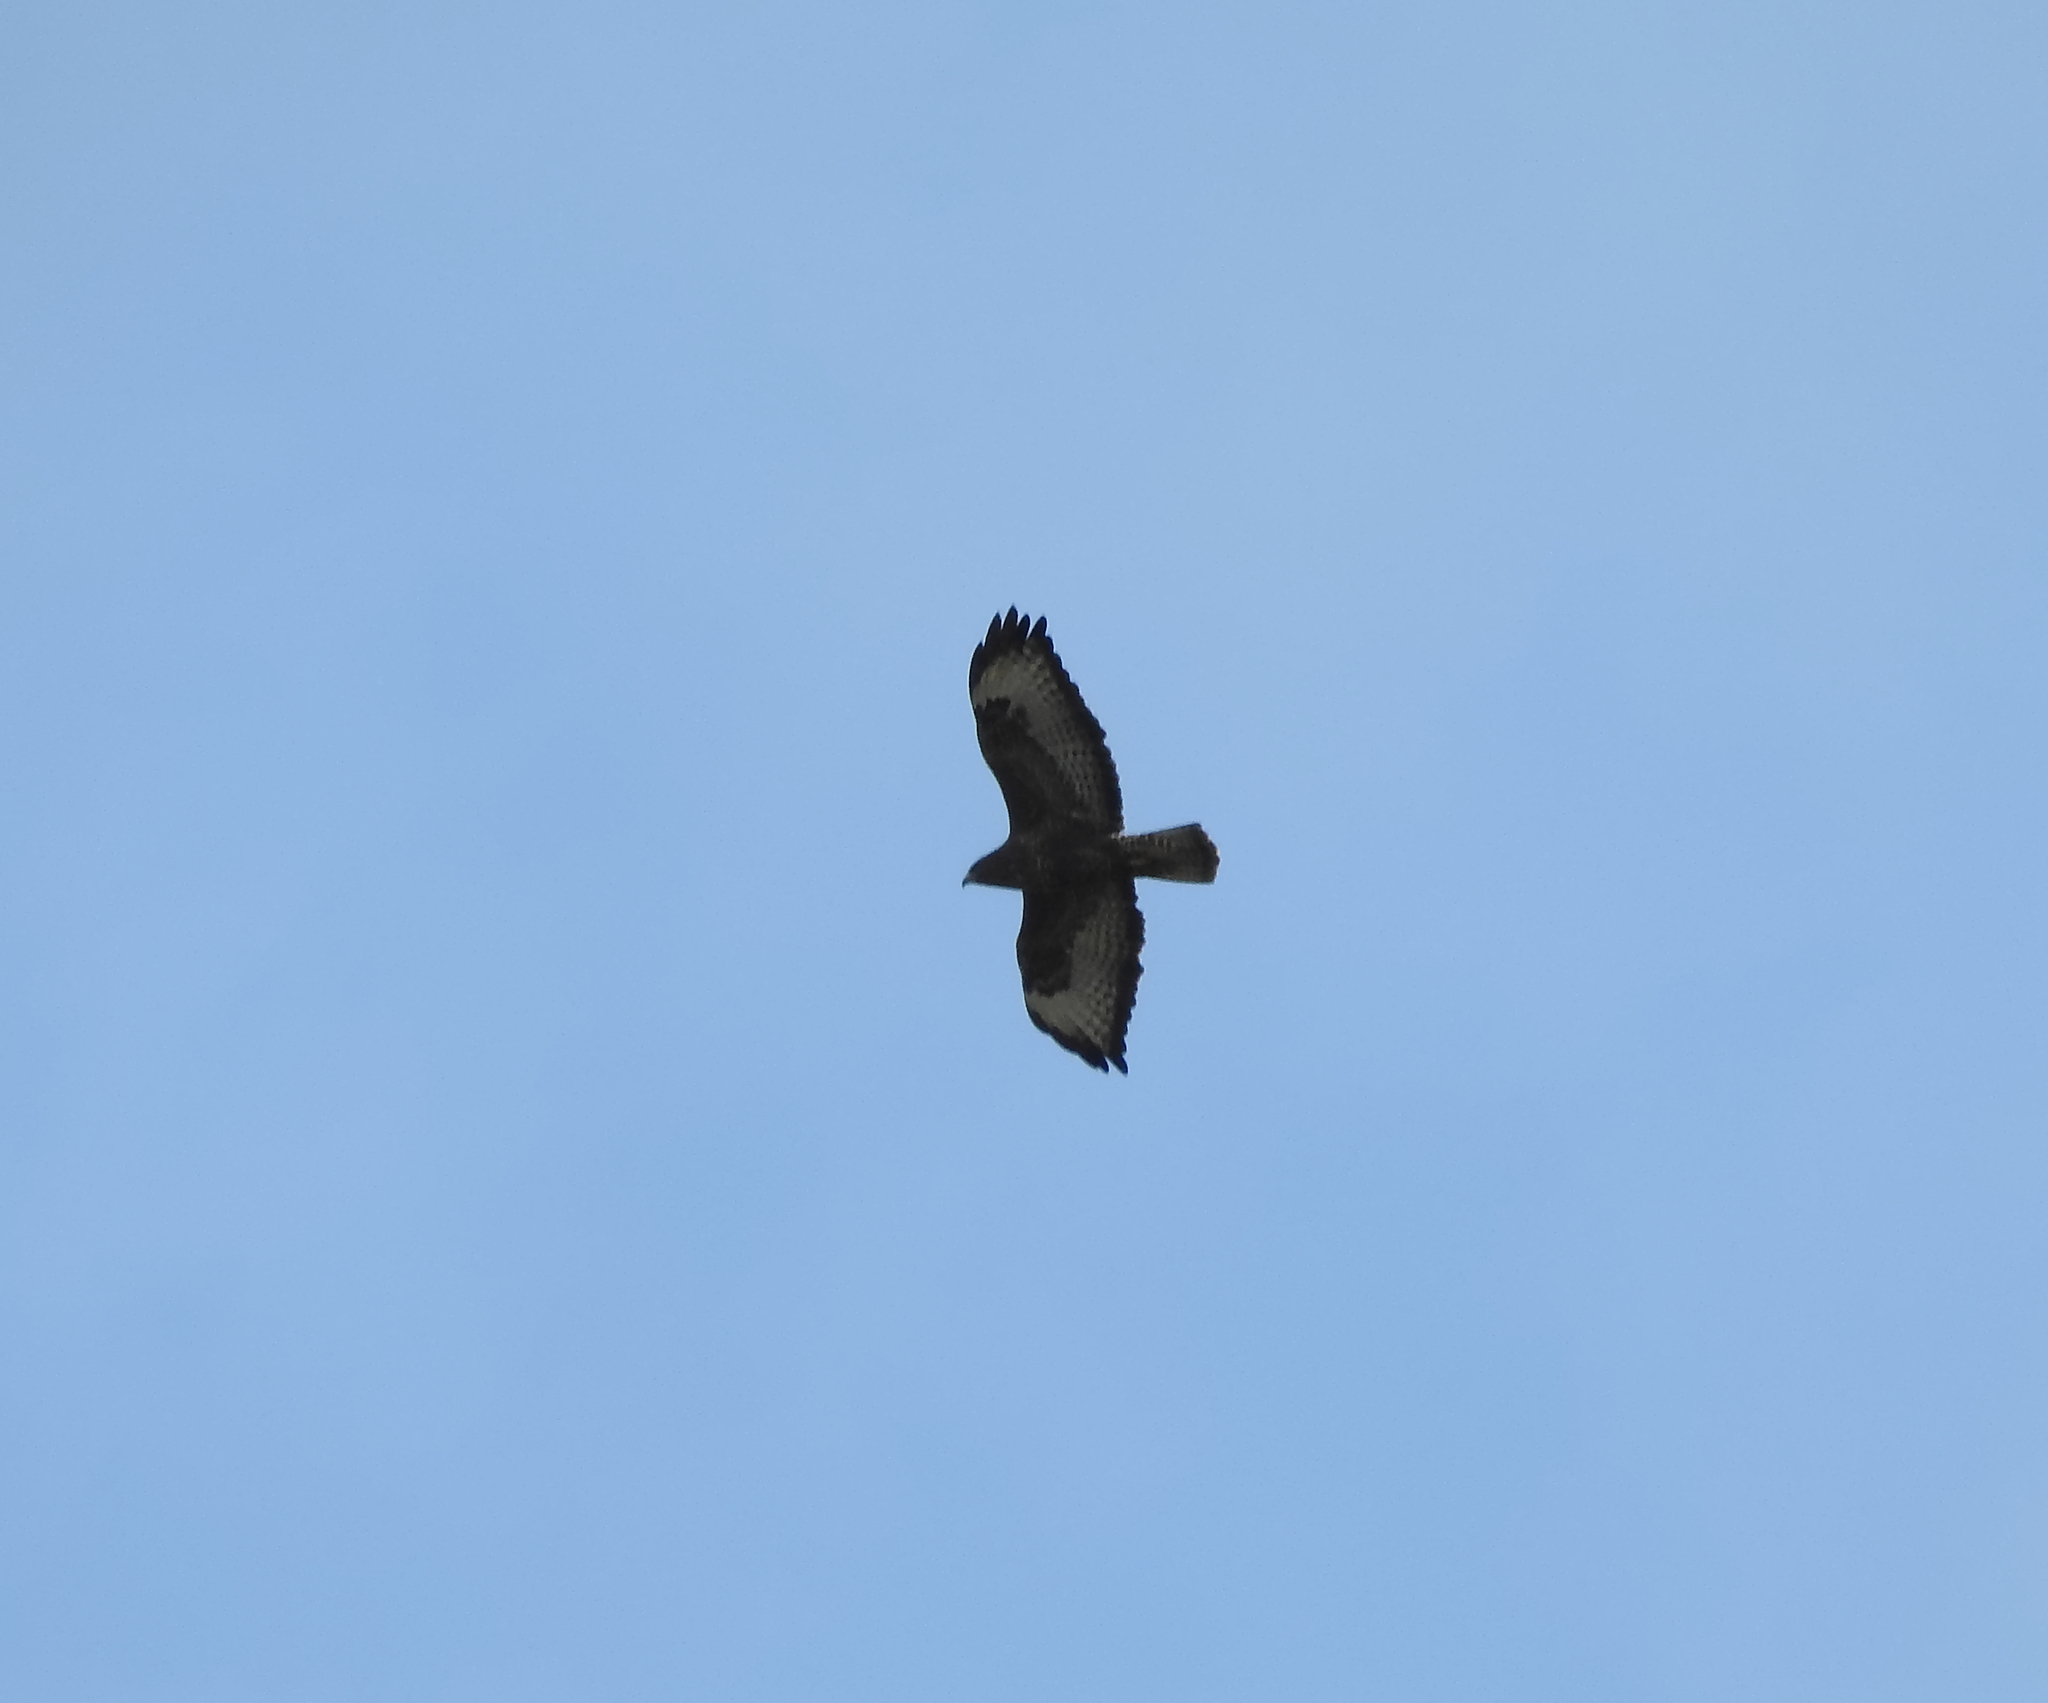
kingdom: Animalia
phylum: Chordata
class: Aves
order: Accipitriformes
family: Accipitridae
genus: Buteo
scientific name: Buteo buteo
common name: Common buzzard
